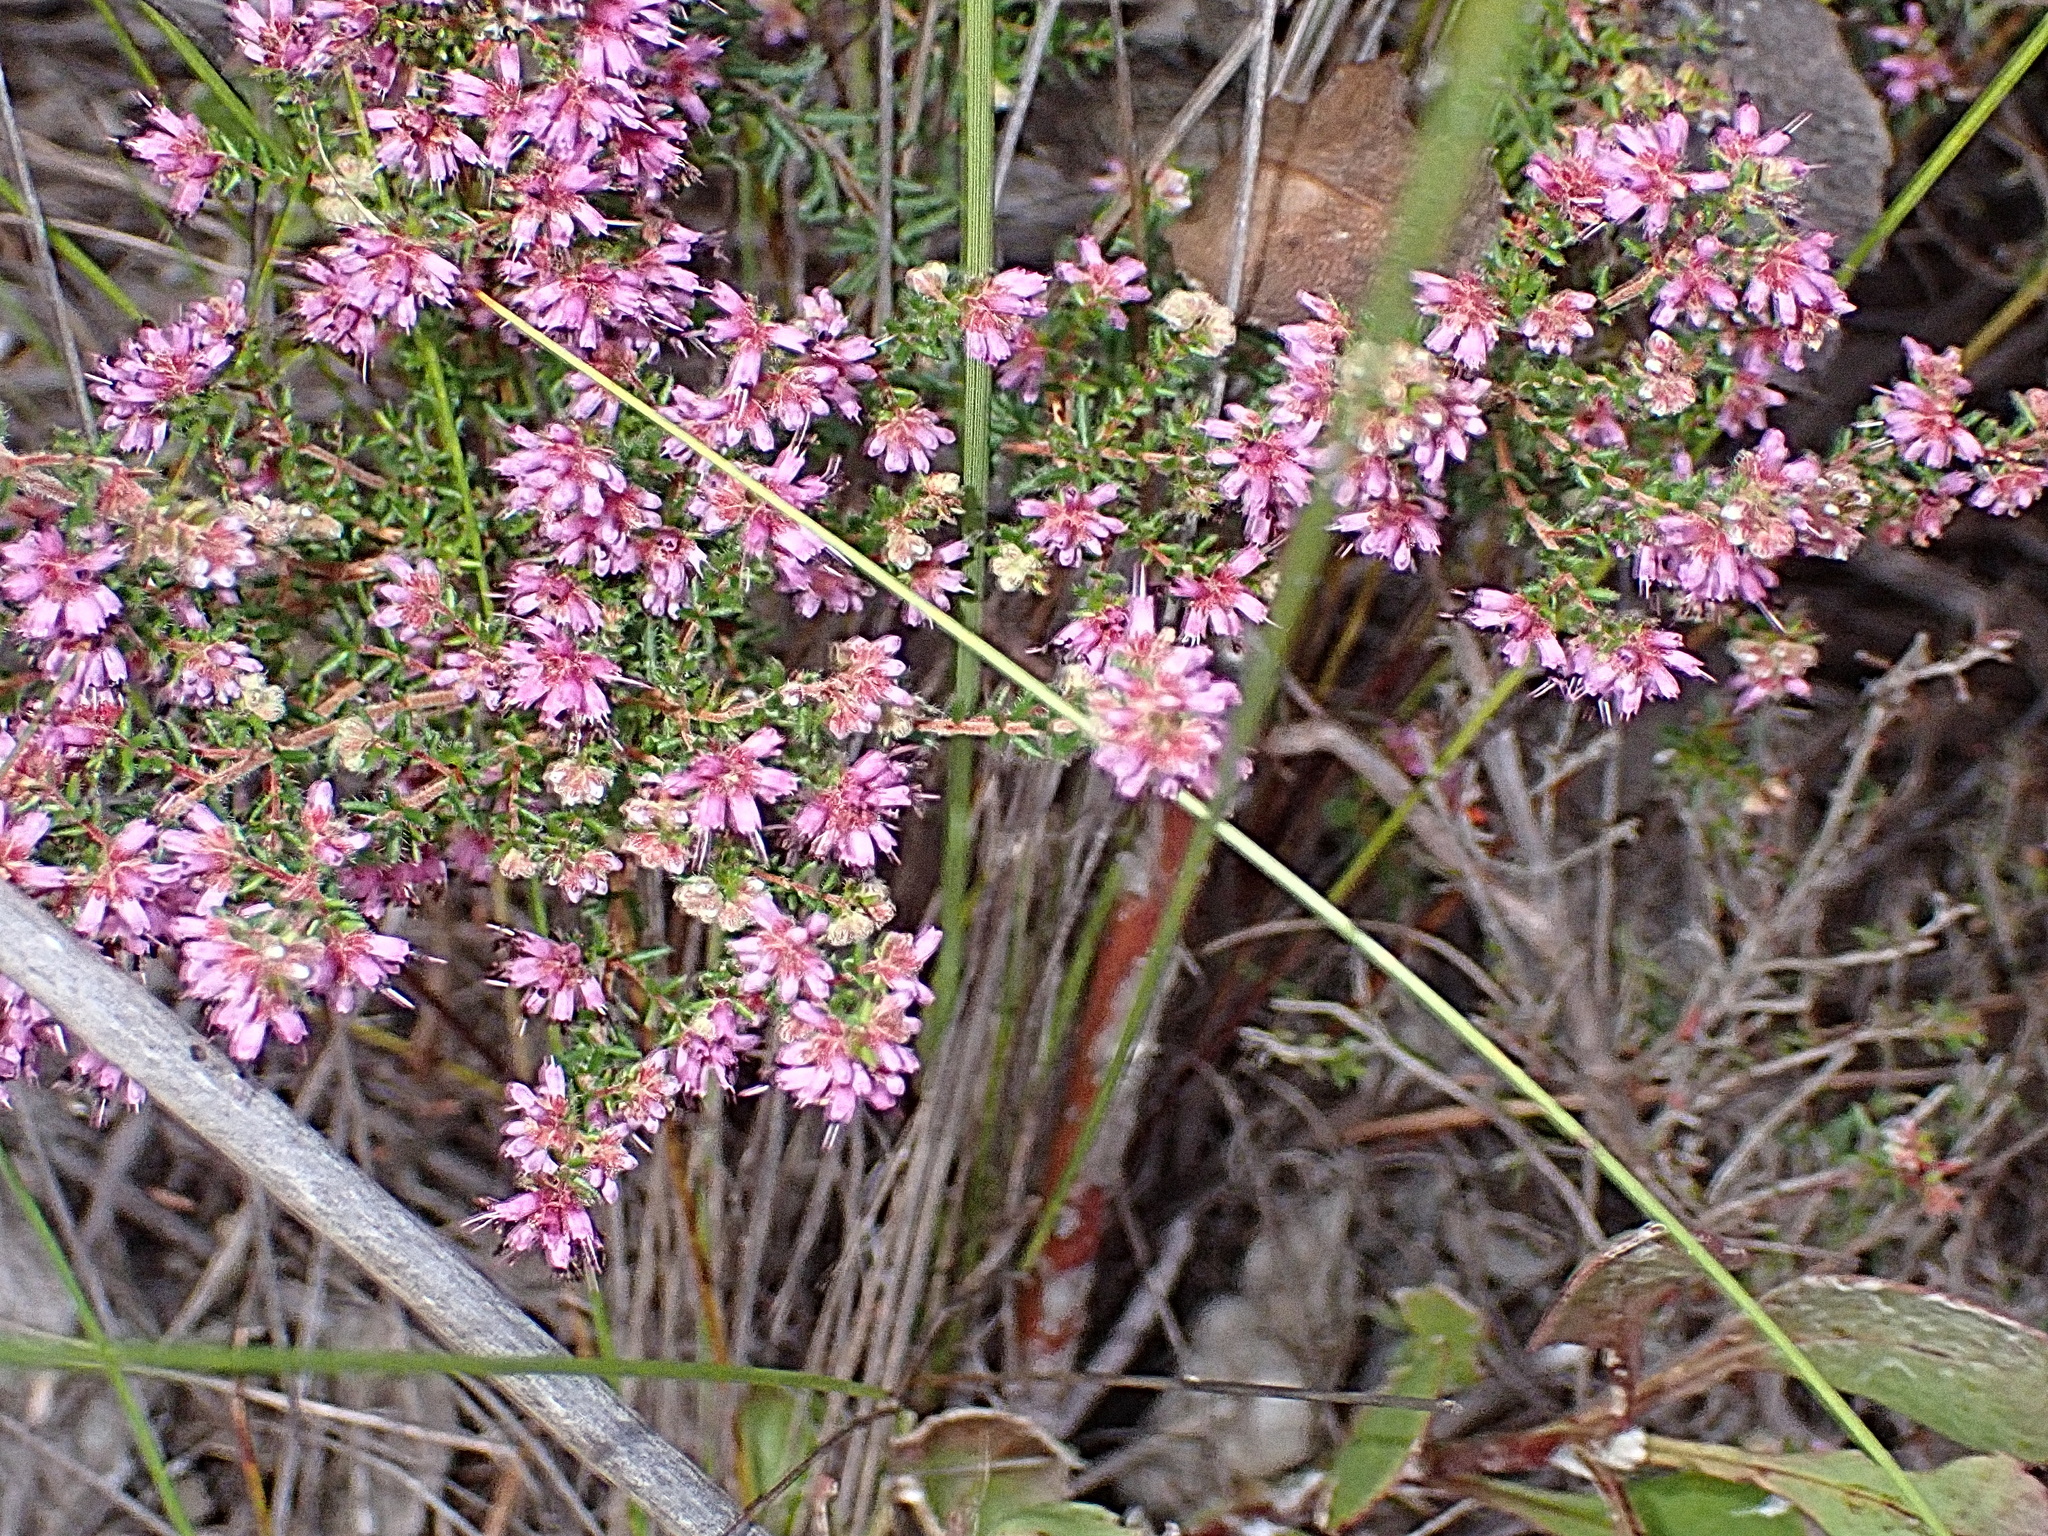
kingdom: Plantae
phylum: Tracheophyta
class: Magnoliopsida
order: Ericales
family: Ericaceae
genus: Erica
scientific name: Erica similis
